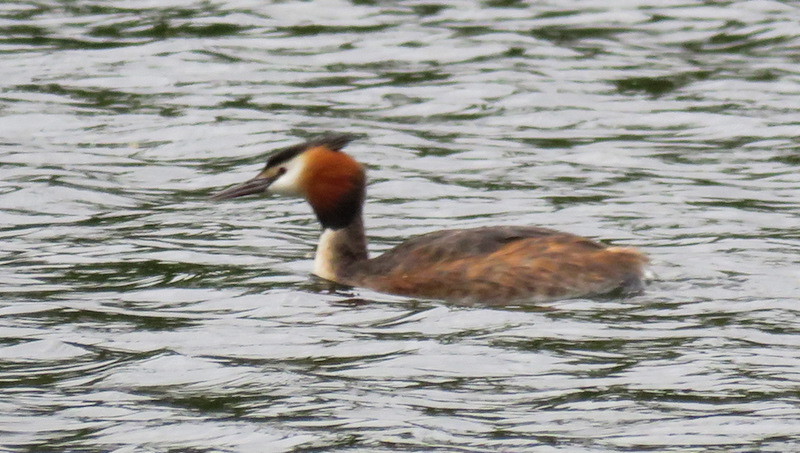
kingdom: Animalia
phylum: Chordata
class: Aves
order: Podicipediformes
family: Podicipedidae
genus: Podiceps
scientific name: Podiceps cristatus
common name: Great crested grebe
